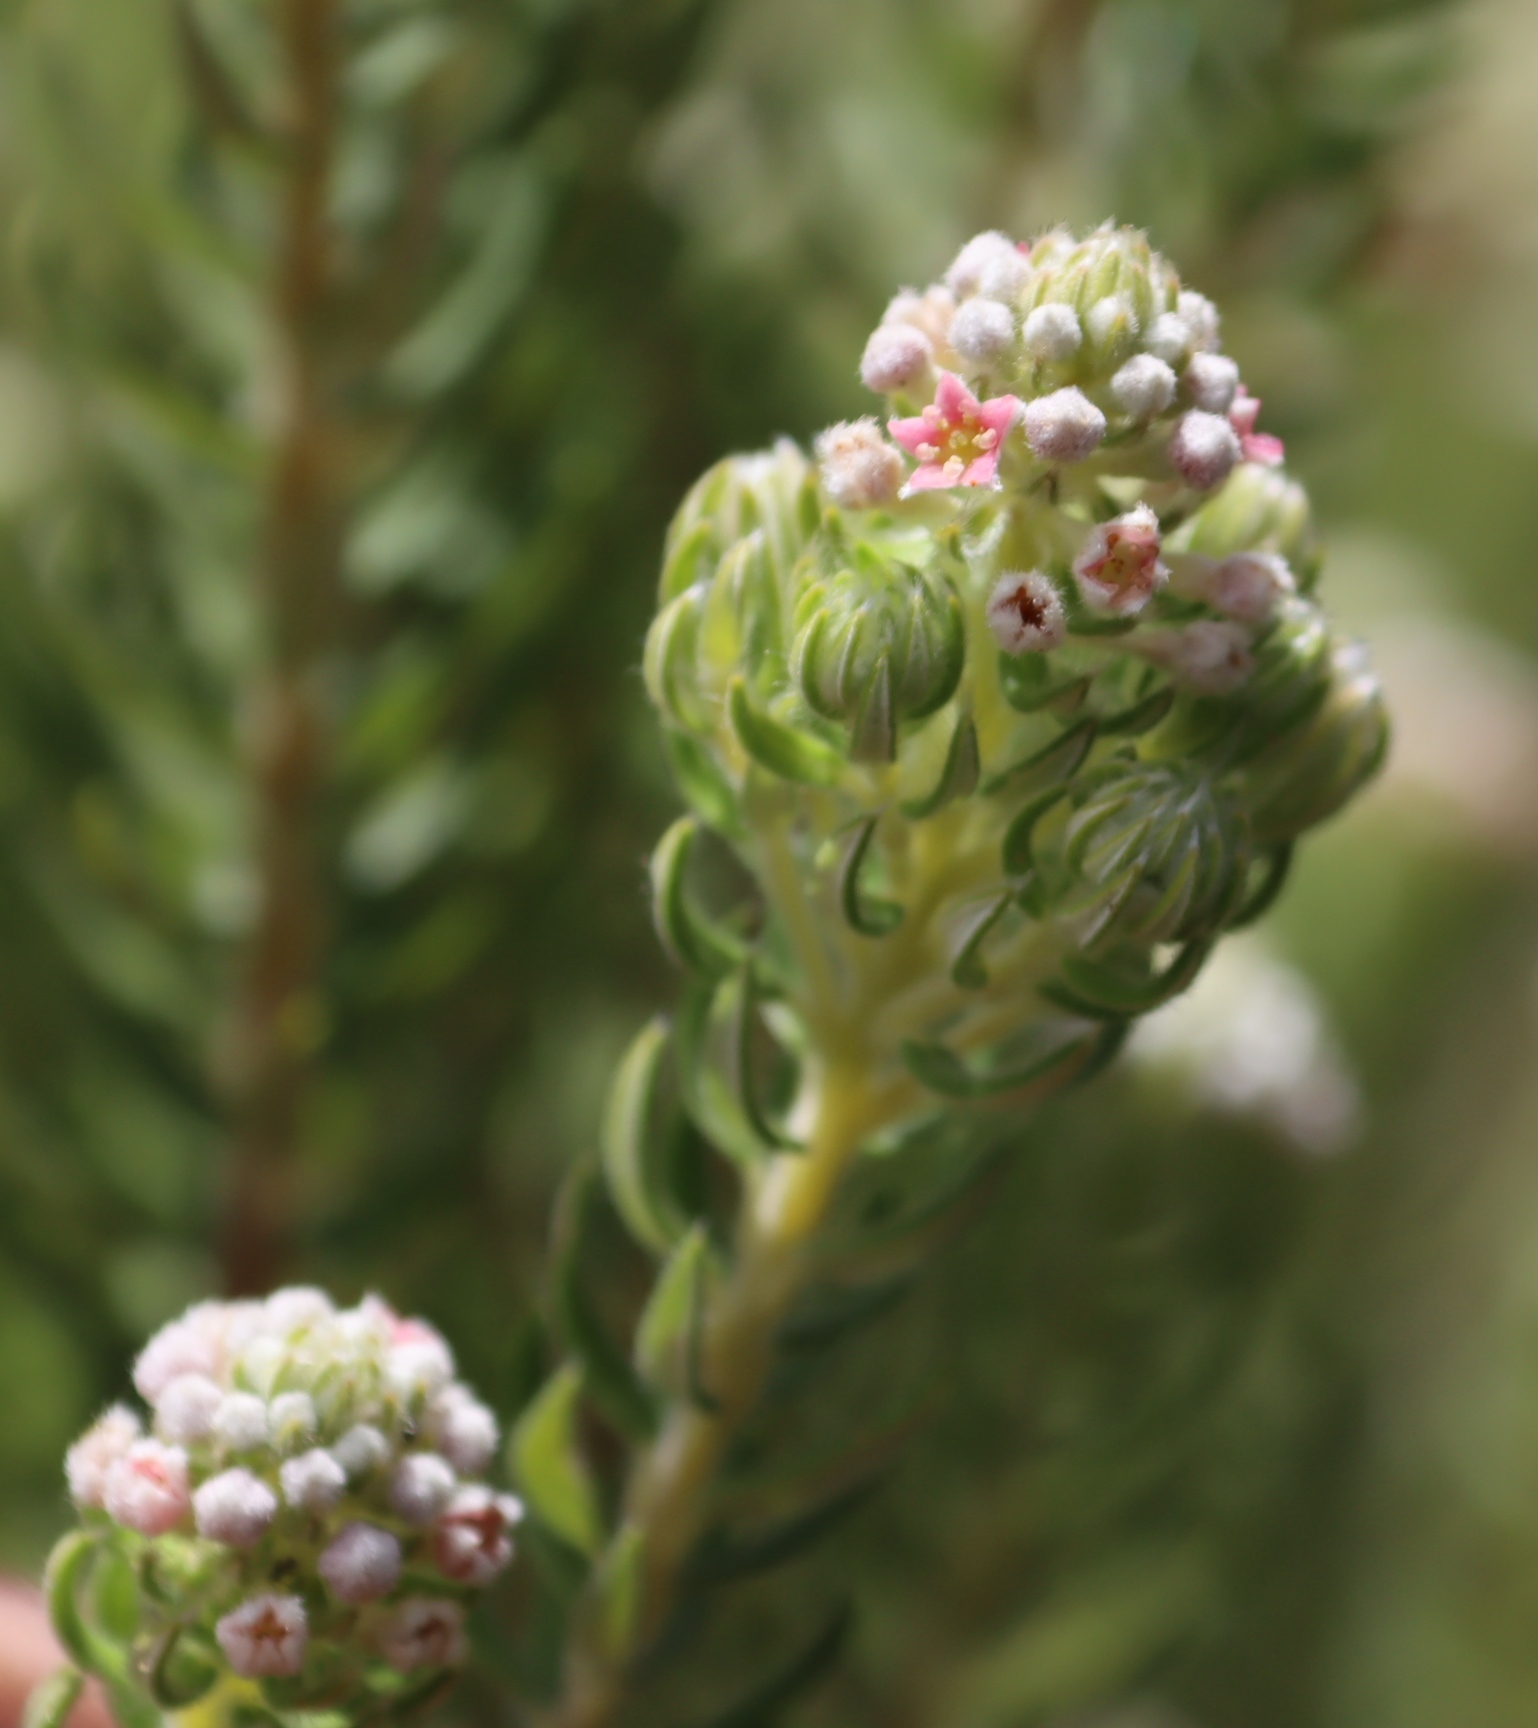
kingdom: Plantae
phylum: Tracheophyta
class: Magnoliopsida
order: Rosales
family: Rhamnaceae
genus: Phylica
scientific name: Phylica pinea
